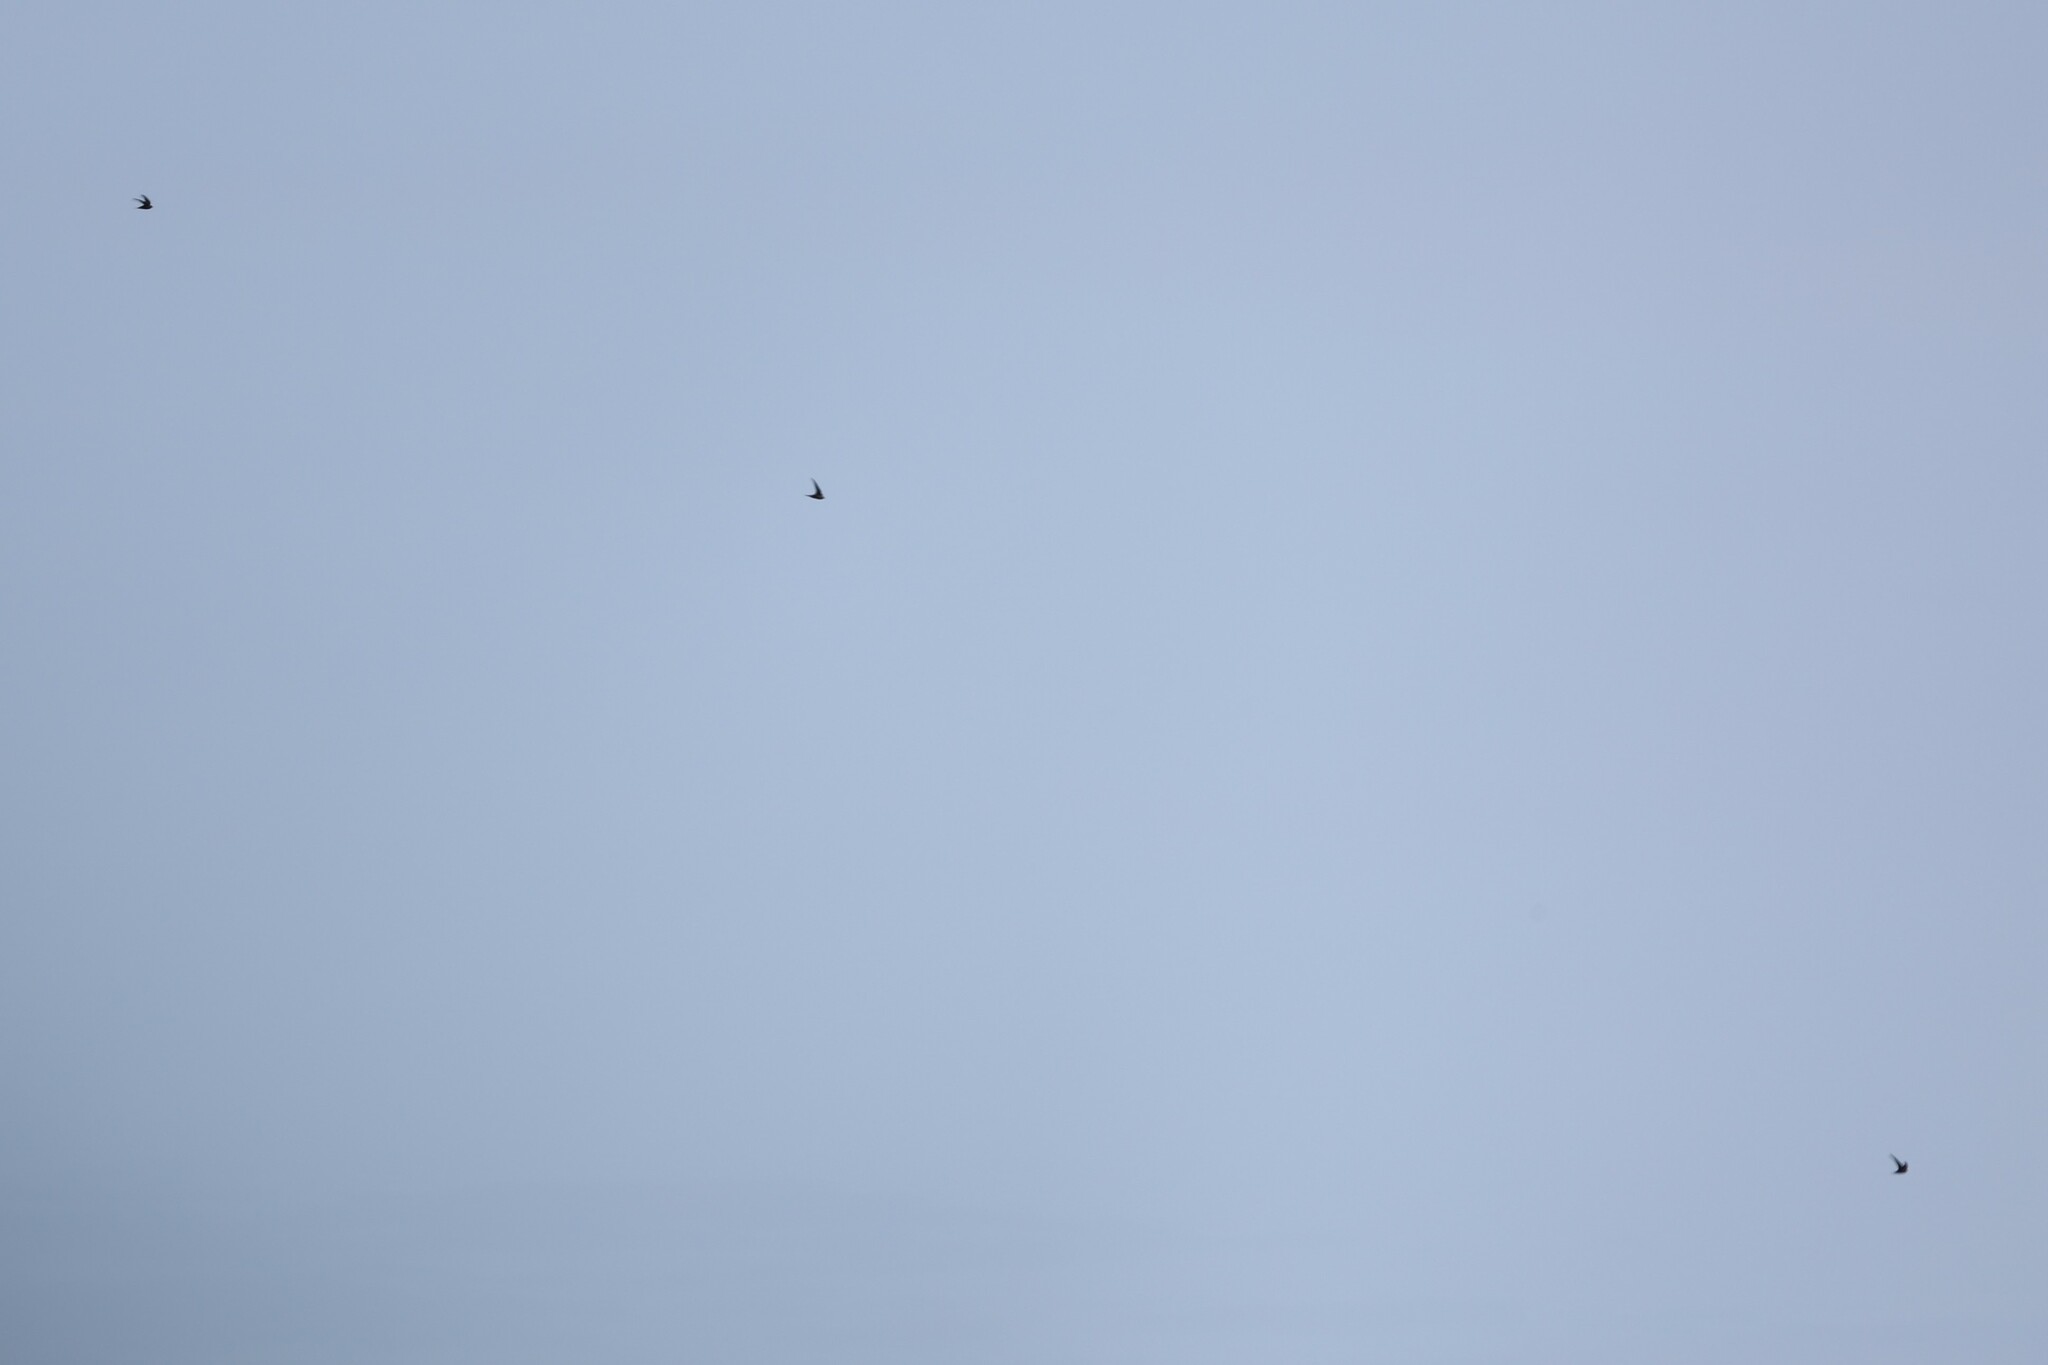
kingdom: Animalia
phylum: Chordata
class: Aves
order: Apodiformes
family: Apodidae
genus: Apus
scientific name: Apus apus
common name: Common swift
